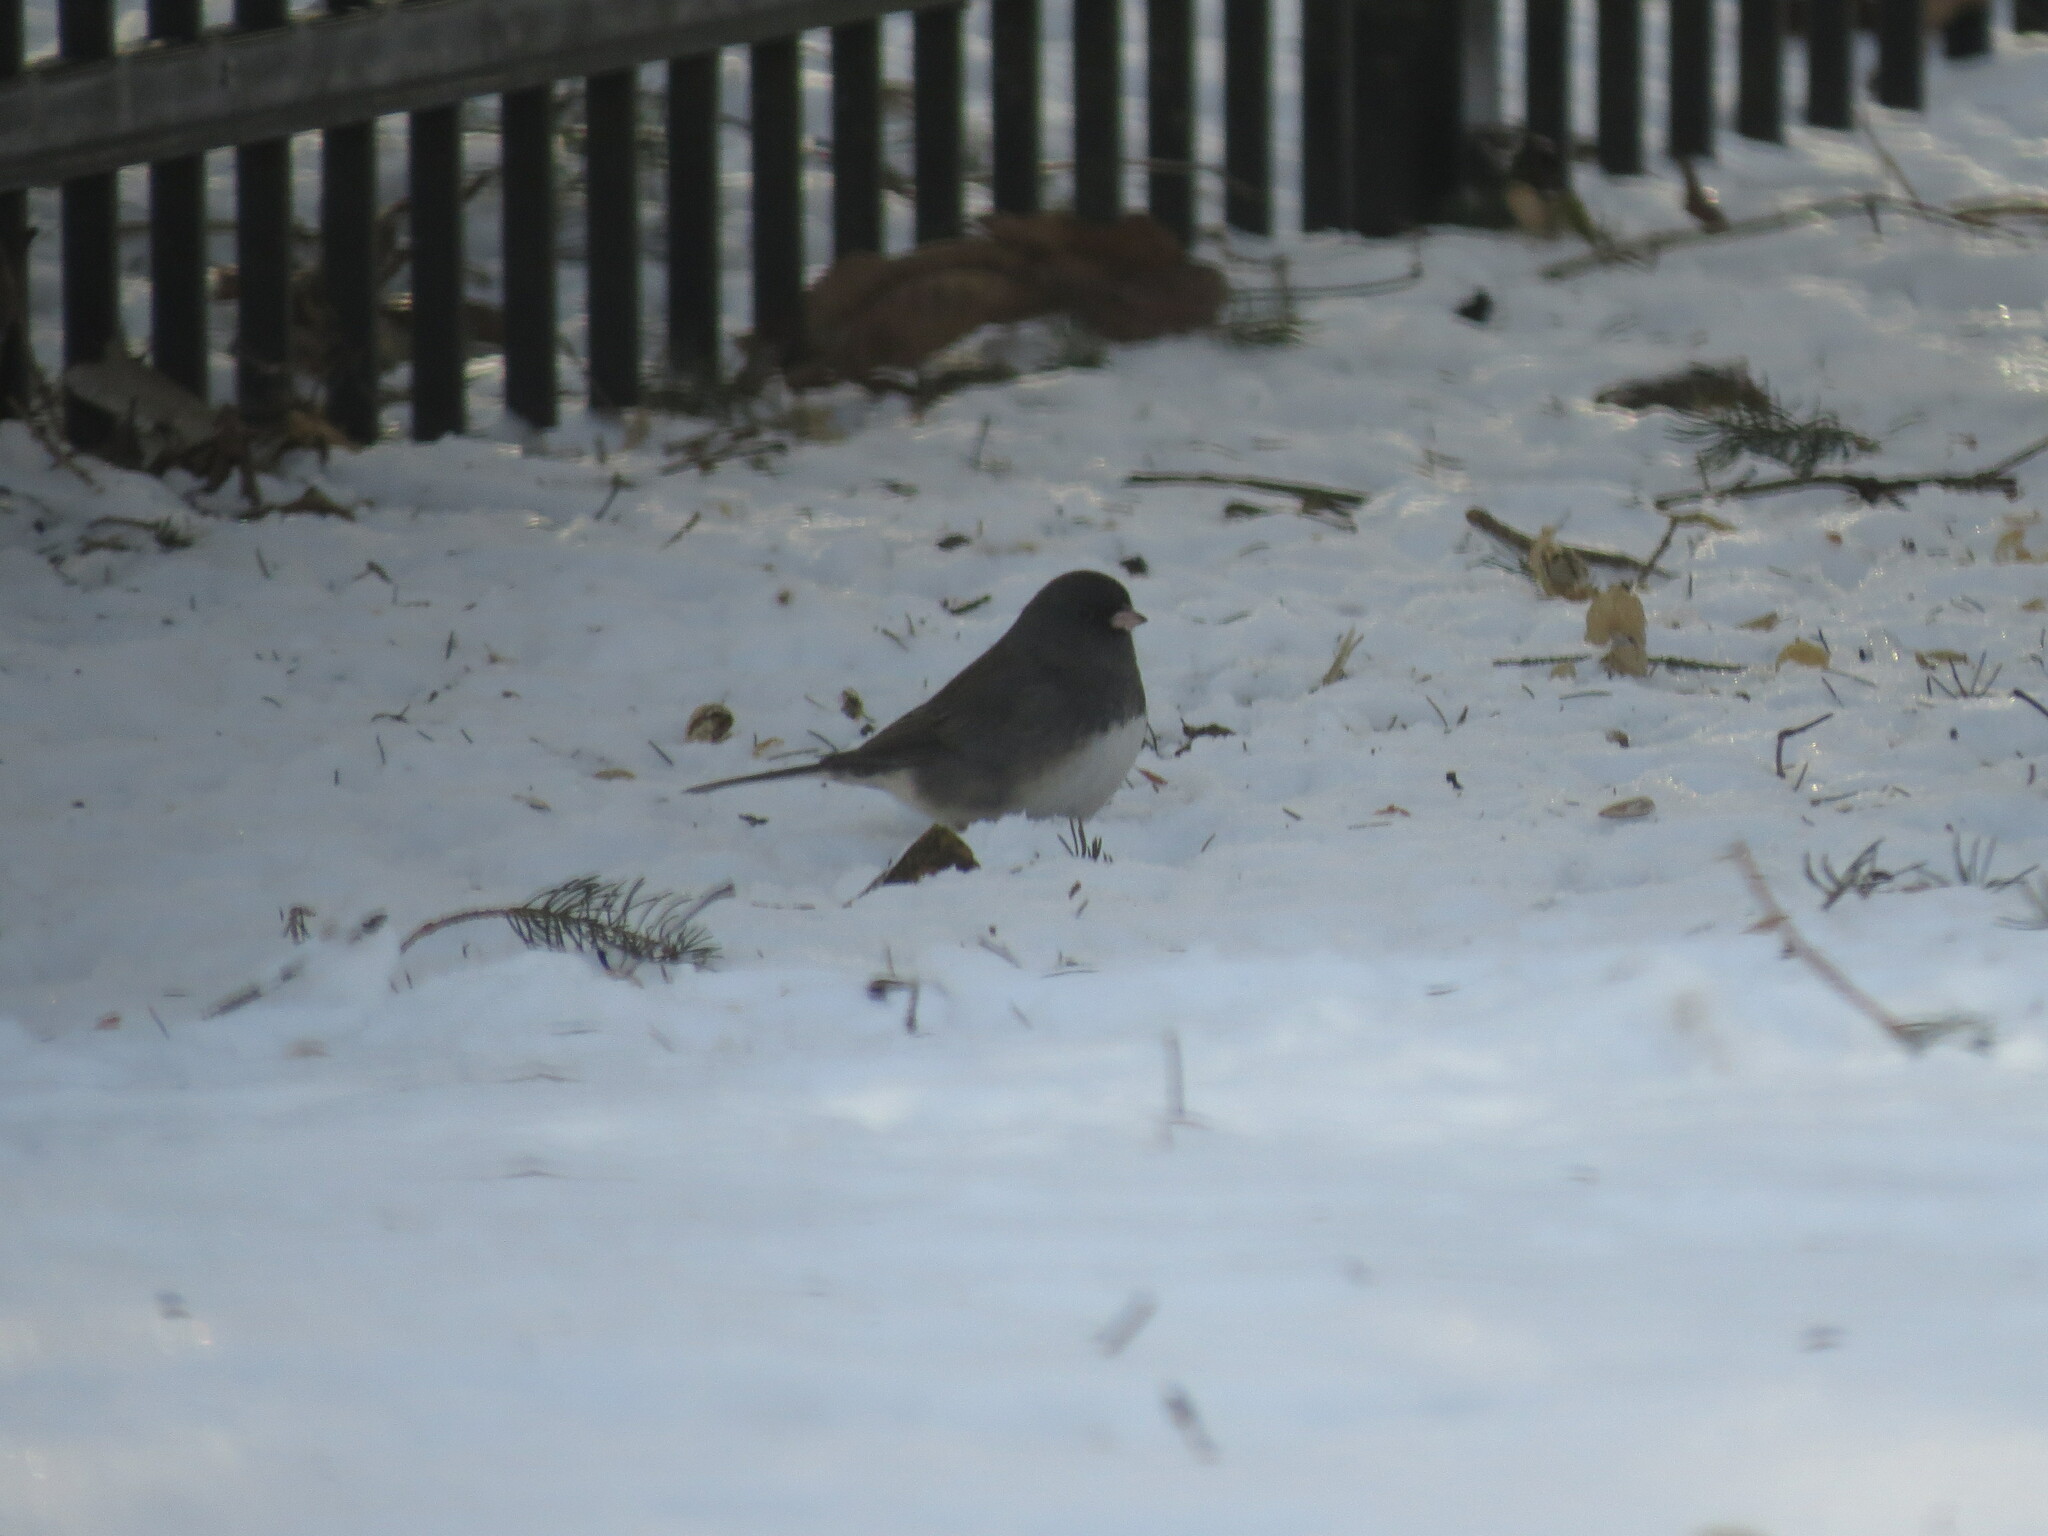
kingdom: Animalia
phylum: Chordata
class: Aves
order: Passeriformes
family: Passerellidae
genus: Junco
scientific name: Junco hyemalis
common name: Dark-eyed junco
